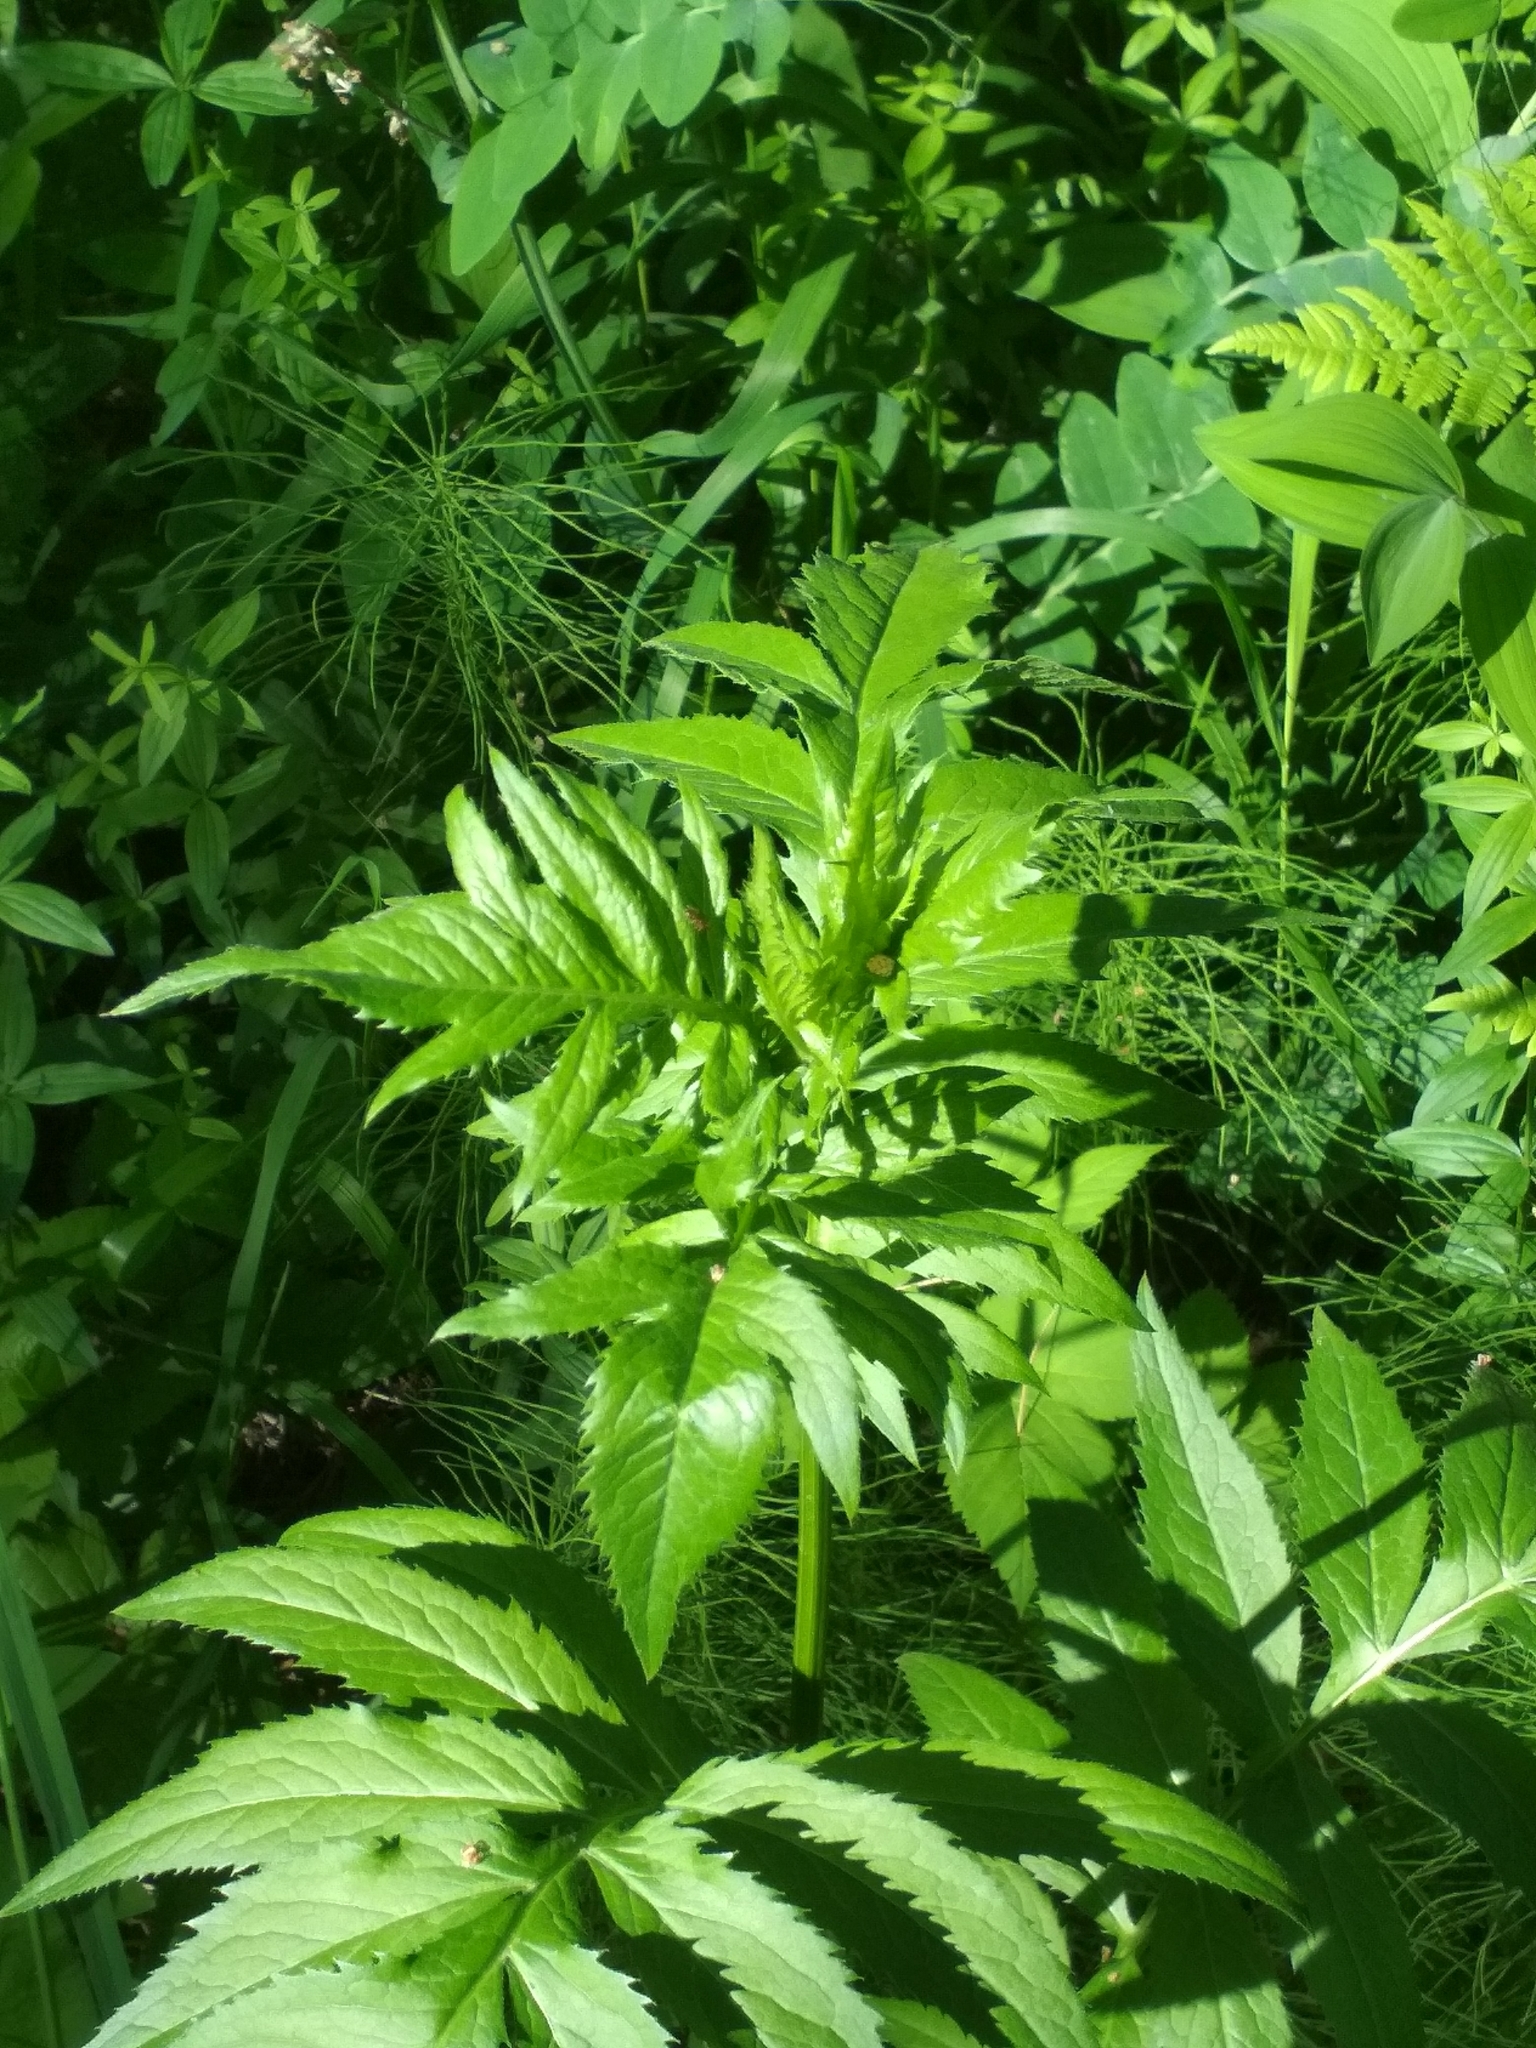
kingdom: Plantae
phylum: Tracheophyta
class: Magnoliopsida
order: Asterales
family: Asteraceae
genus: Serratula
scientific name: Serratula coronata
